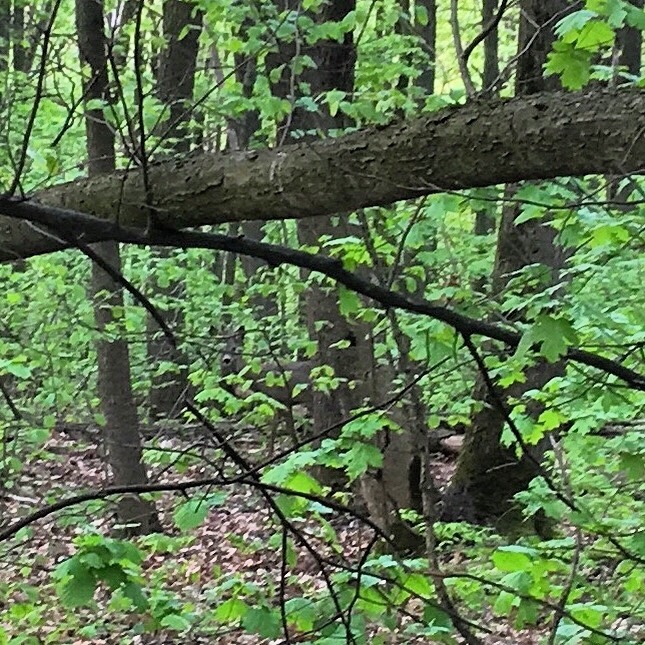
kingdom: Animalia
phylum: Chordata
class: Mammalia
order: Artiodactyla
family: Cervidae
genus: Capreolus
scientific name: Capreolus capreolus
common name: Western roe deer
